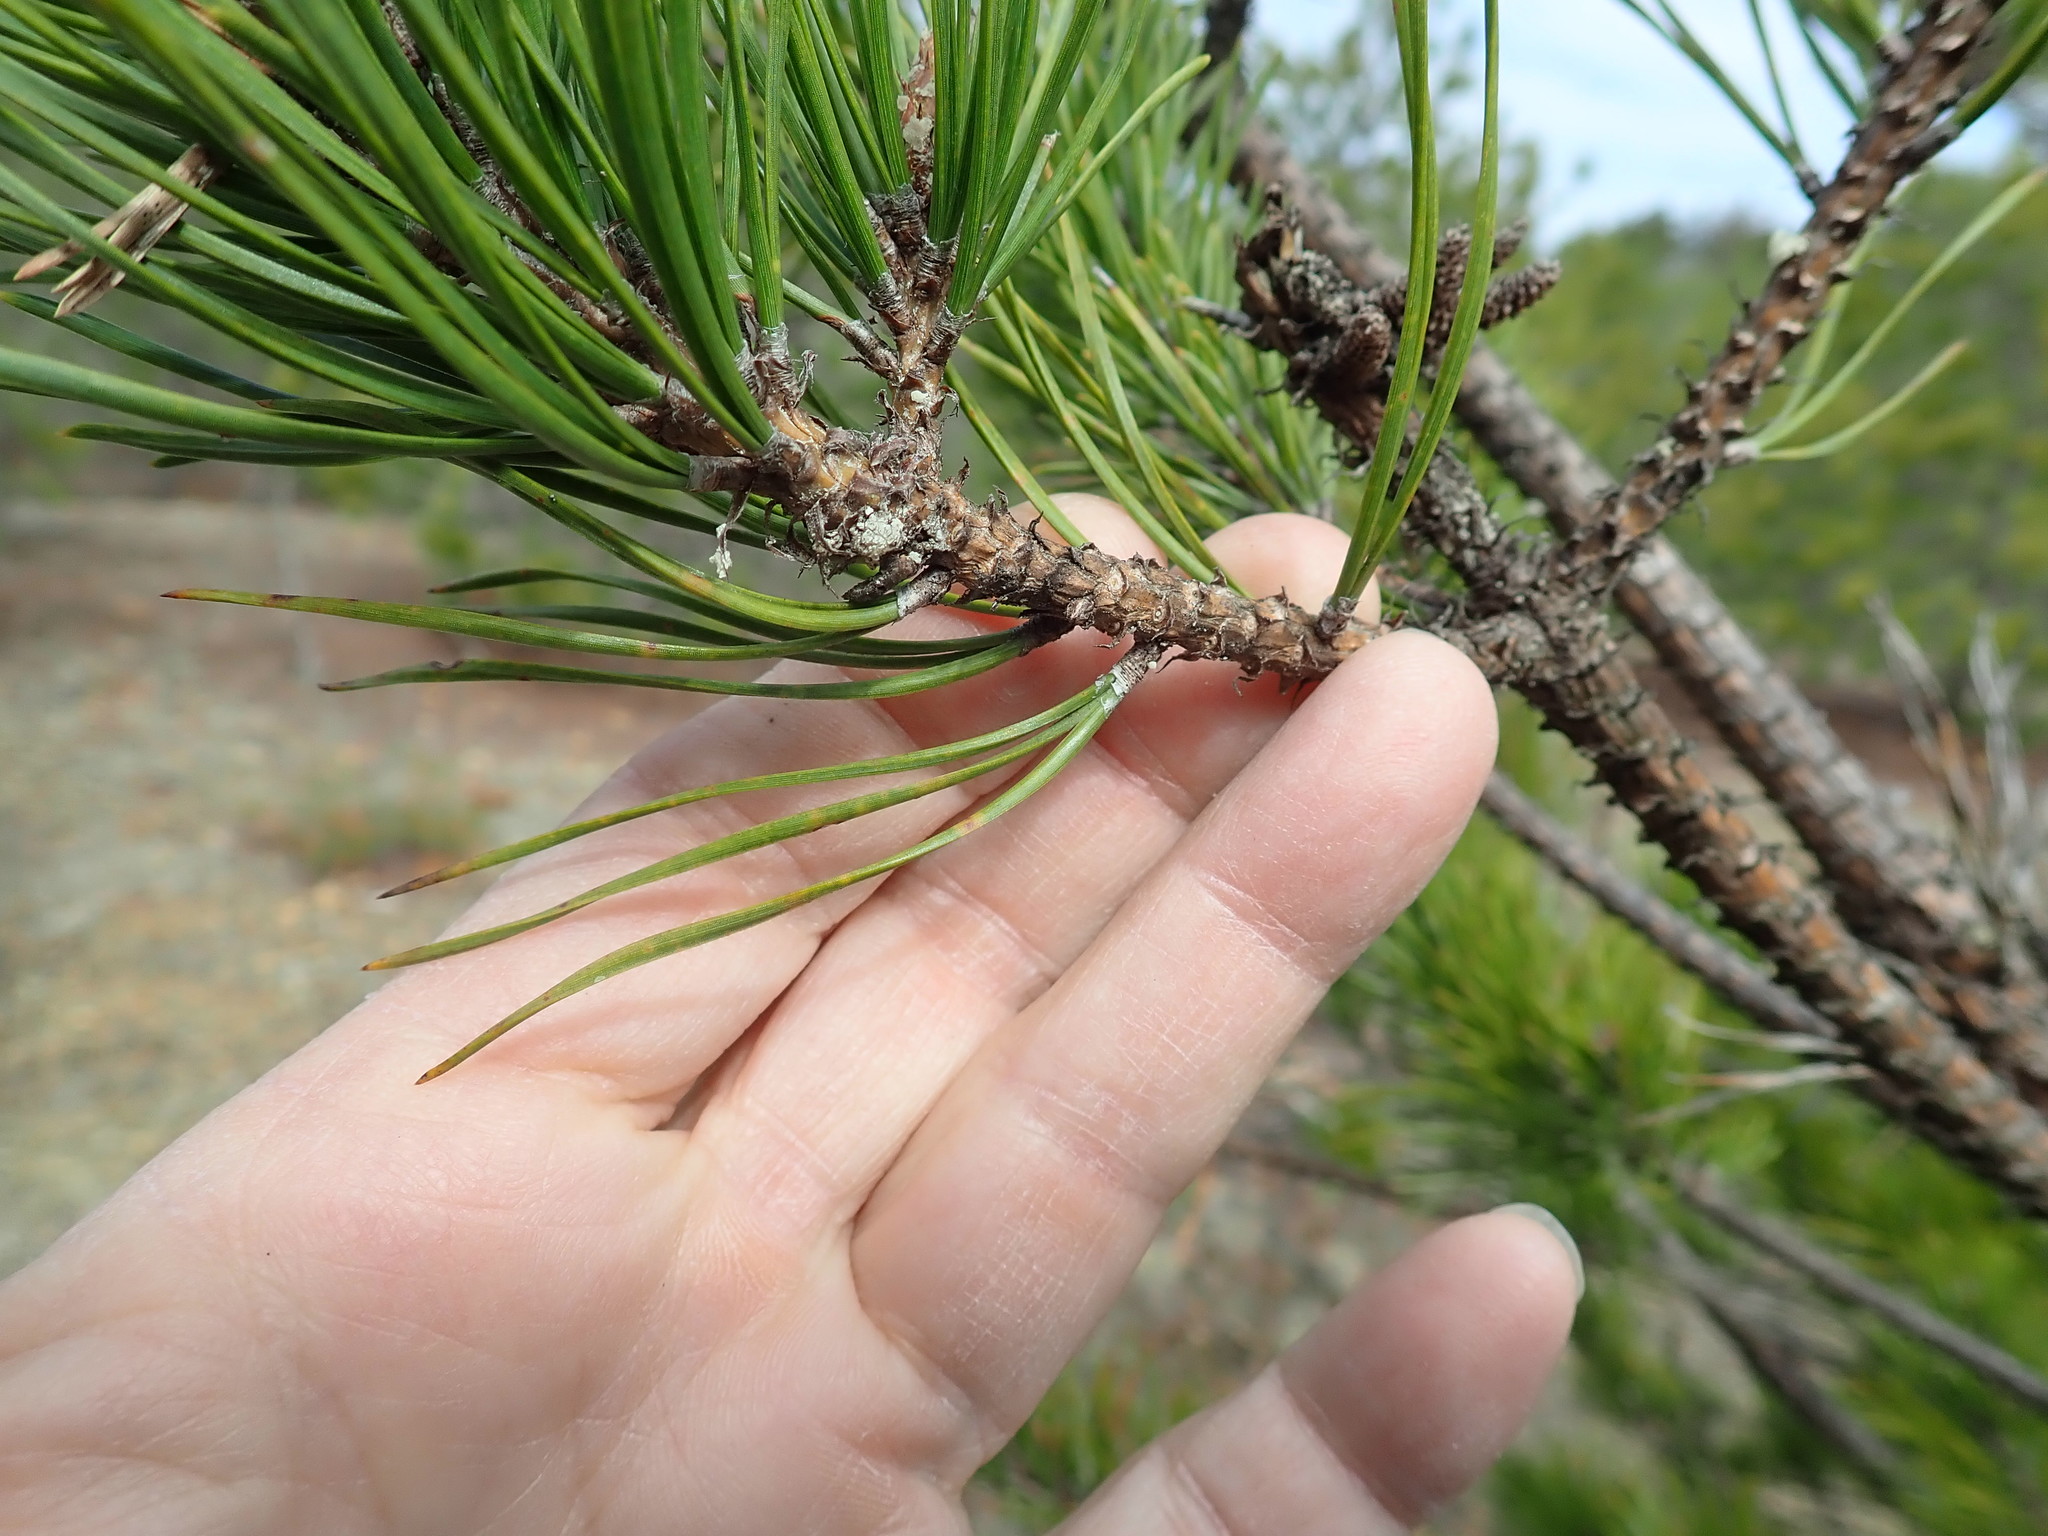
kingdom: Plantae
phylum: Tracheophyta
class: Pinopsida
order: Pinales
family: Pinaceae
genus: Pinus
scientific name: Pinus rigida
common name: Pitch pine
